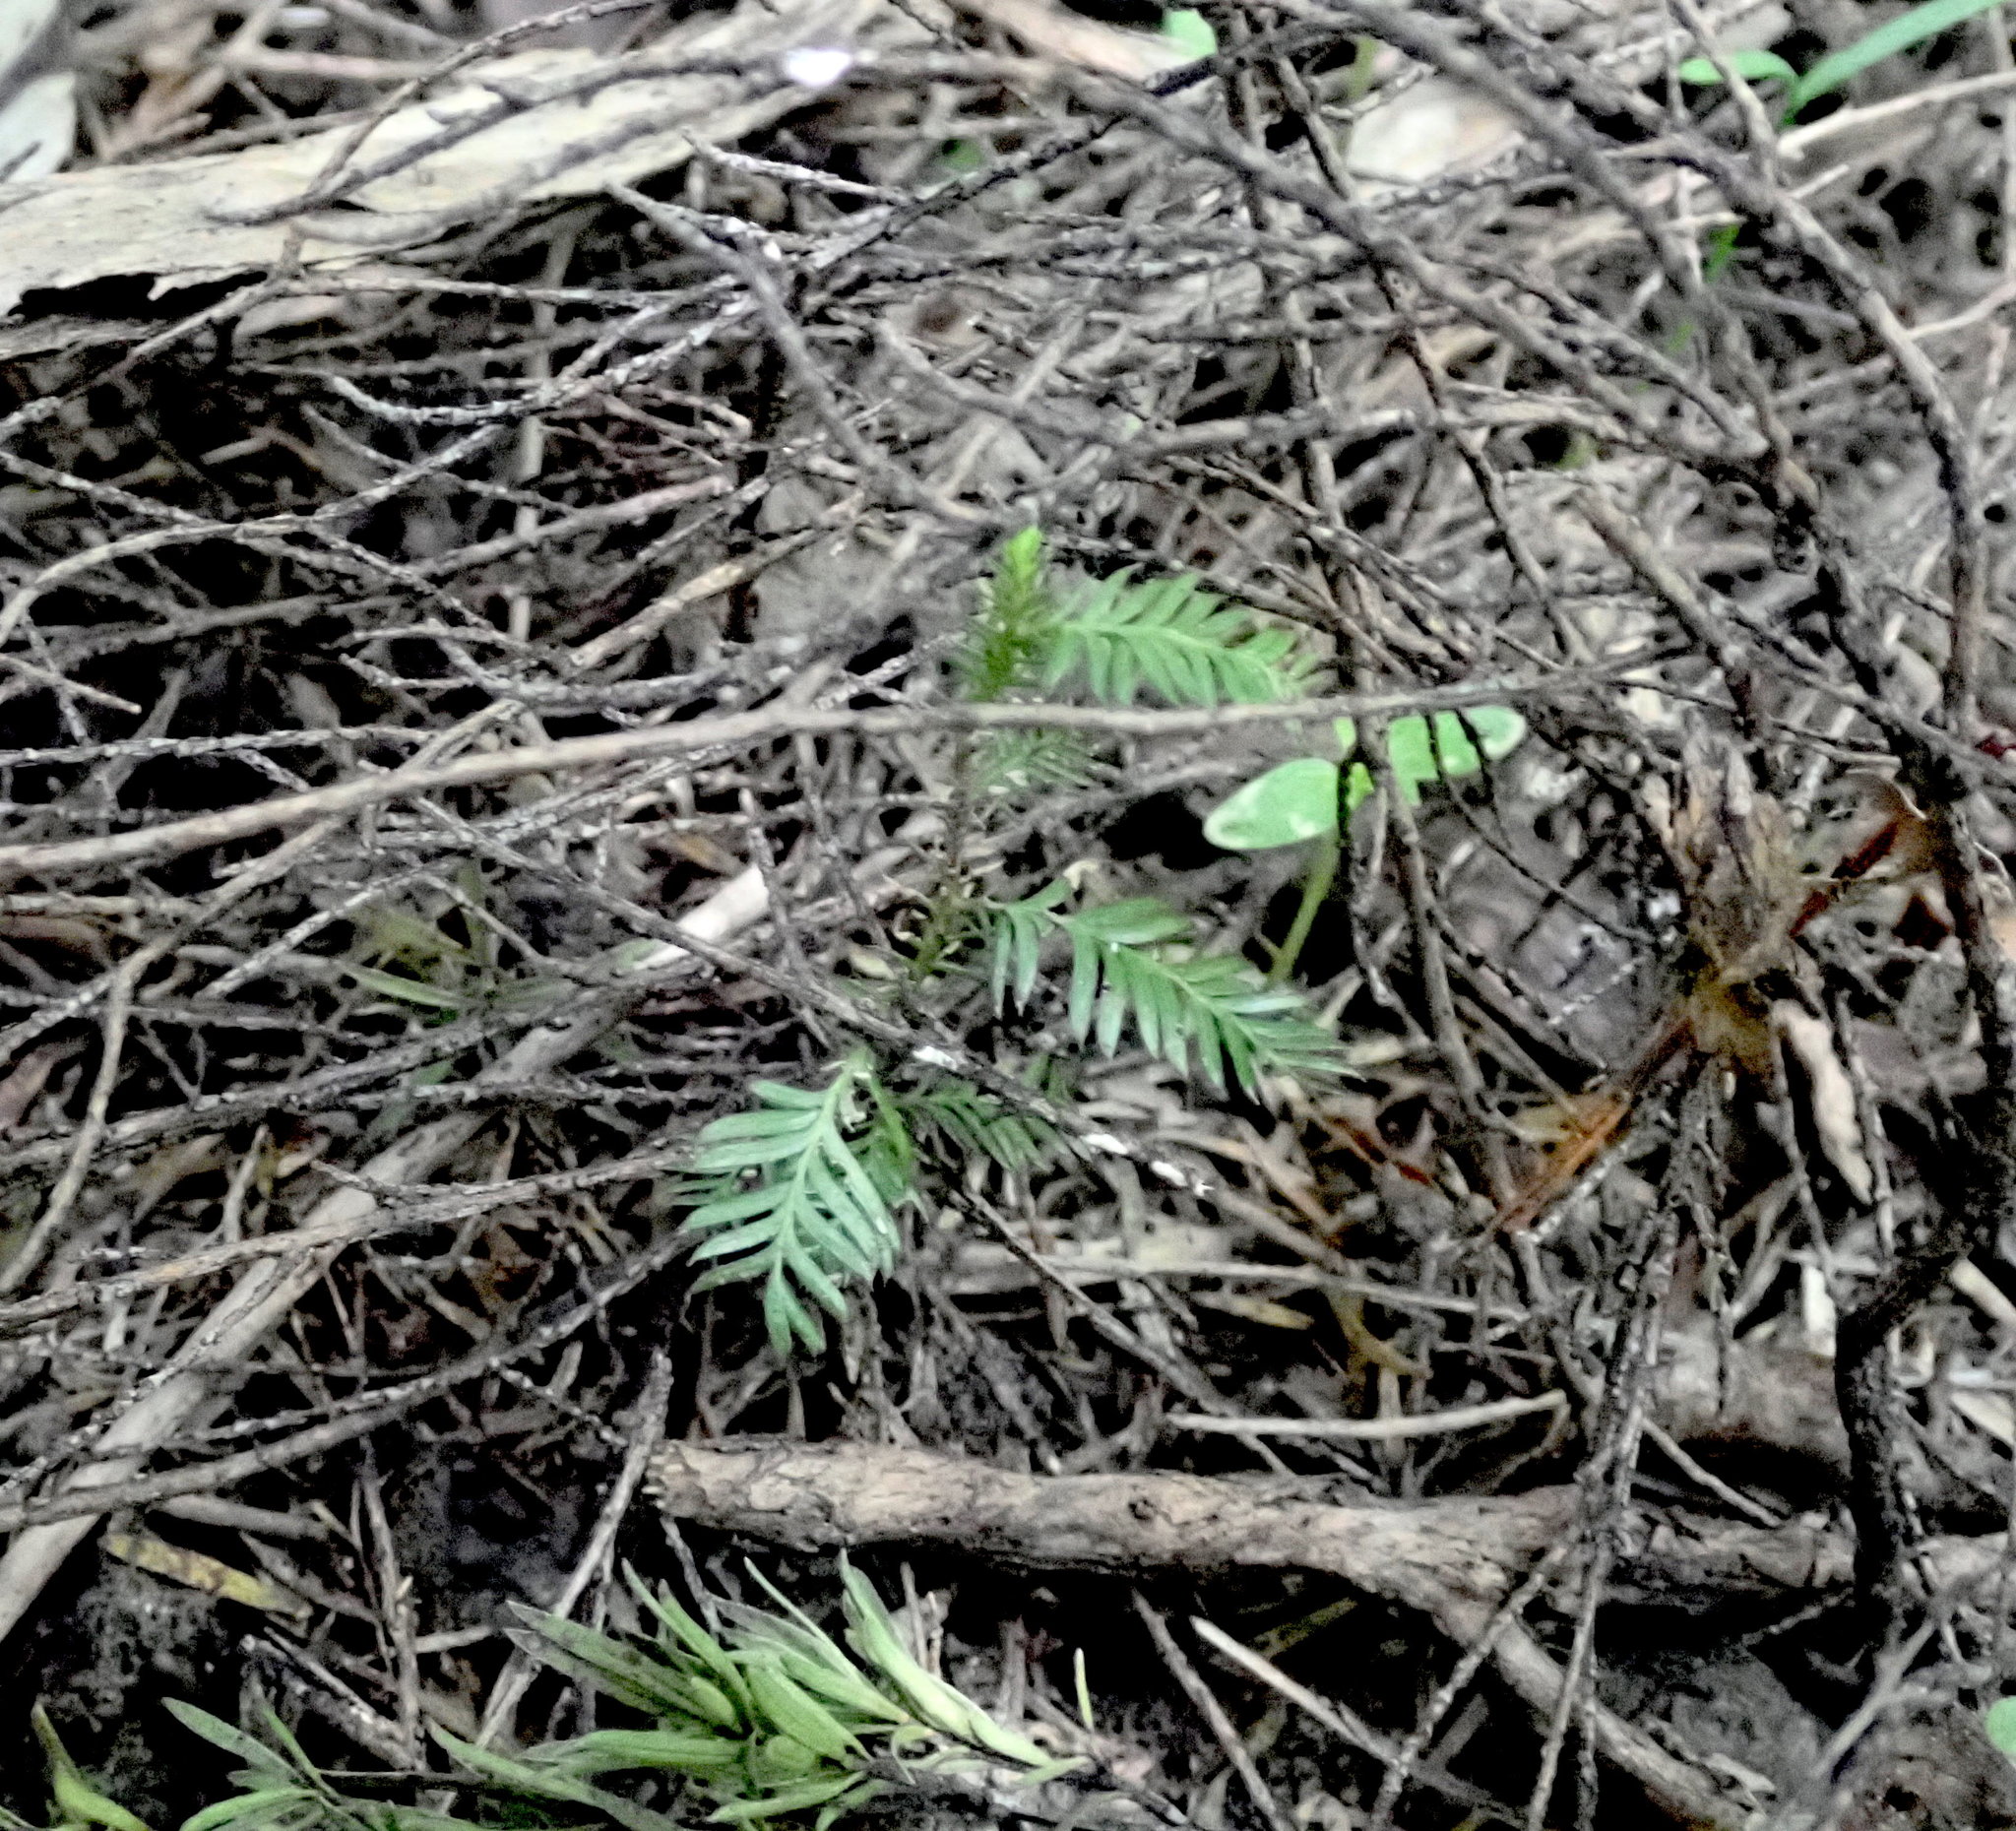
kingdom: Plantae
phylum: Tracheophyta
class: Pinopsida
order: Pinales
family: Podocarpaceae
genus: Dacrycarpus
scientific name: Dacrycarpus dacrydioides
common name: White pine
